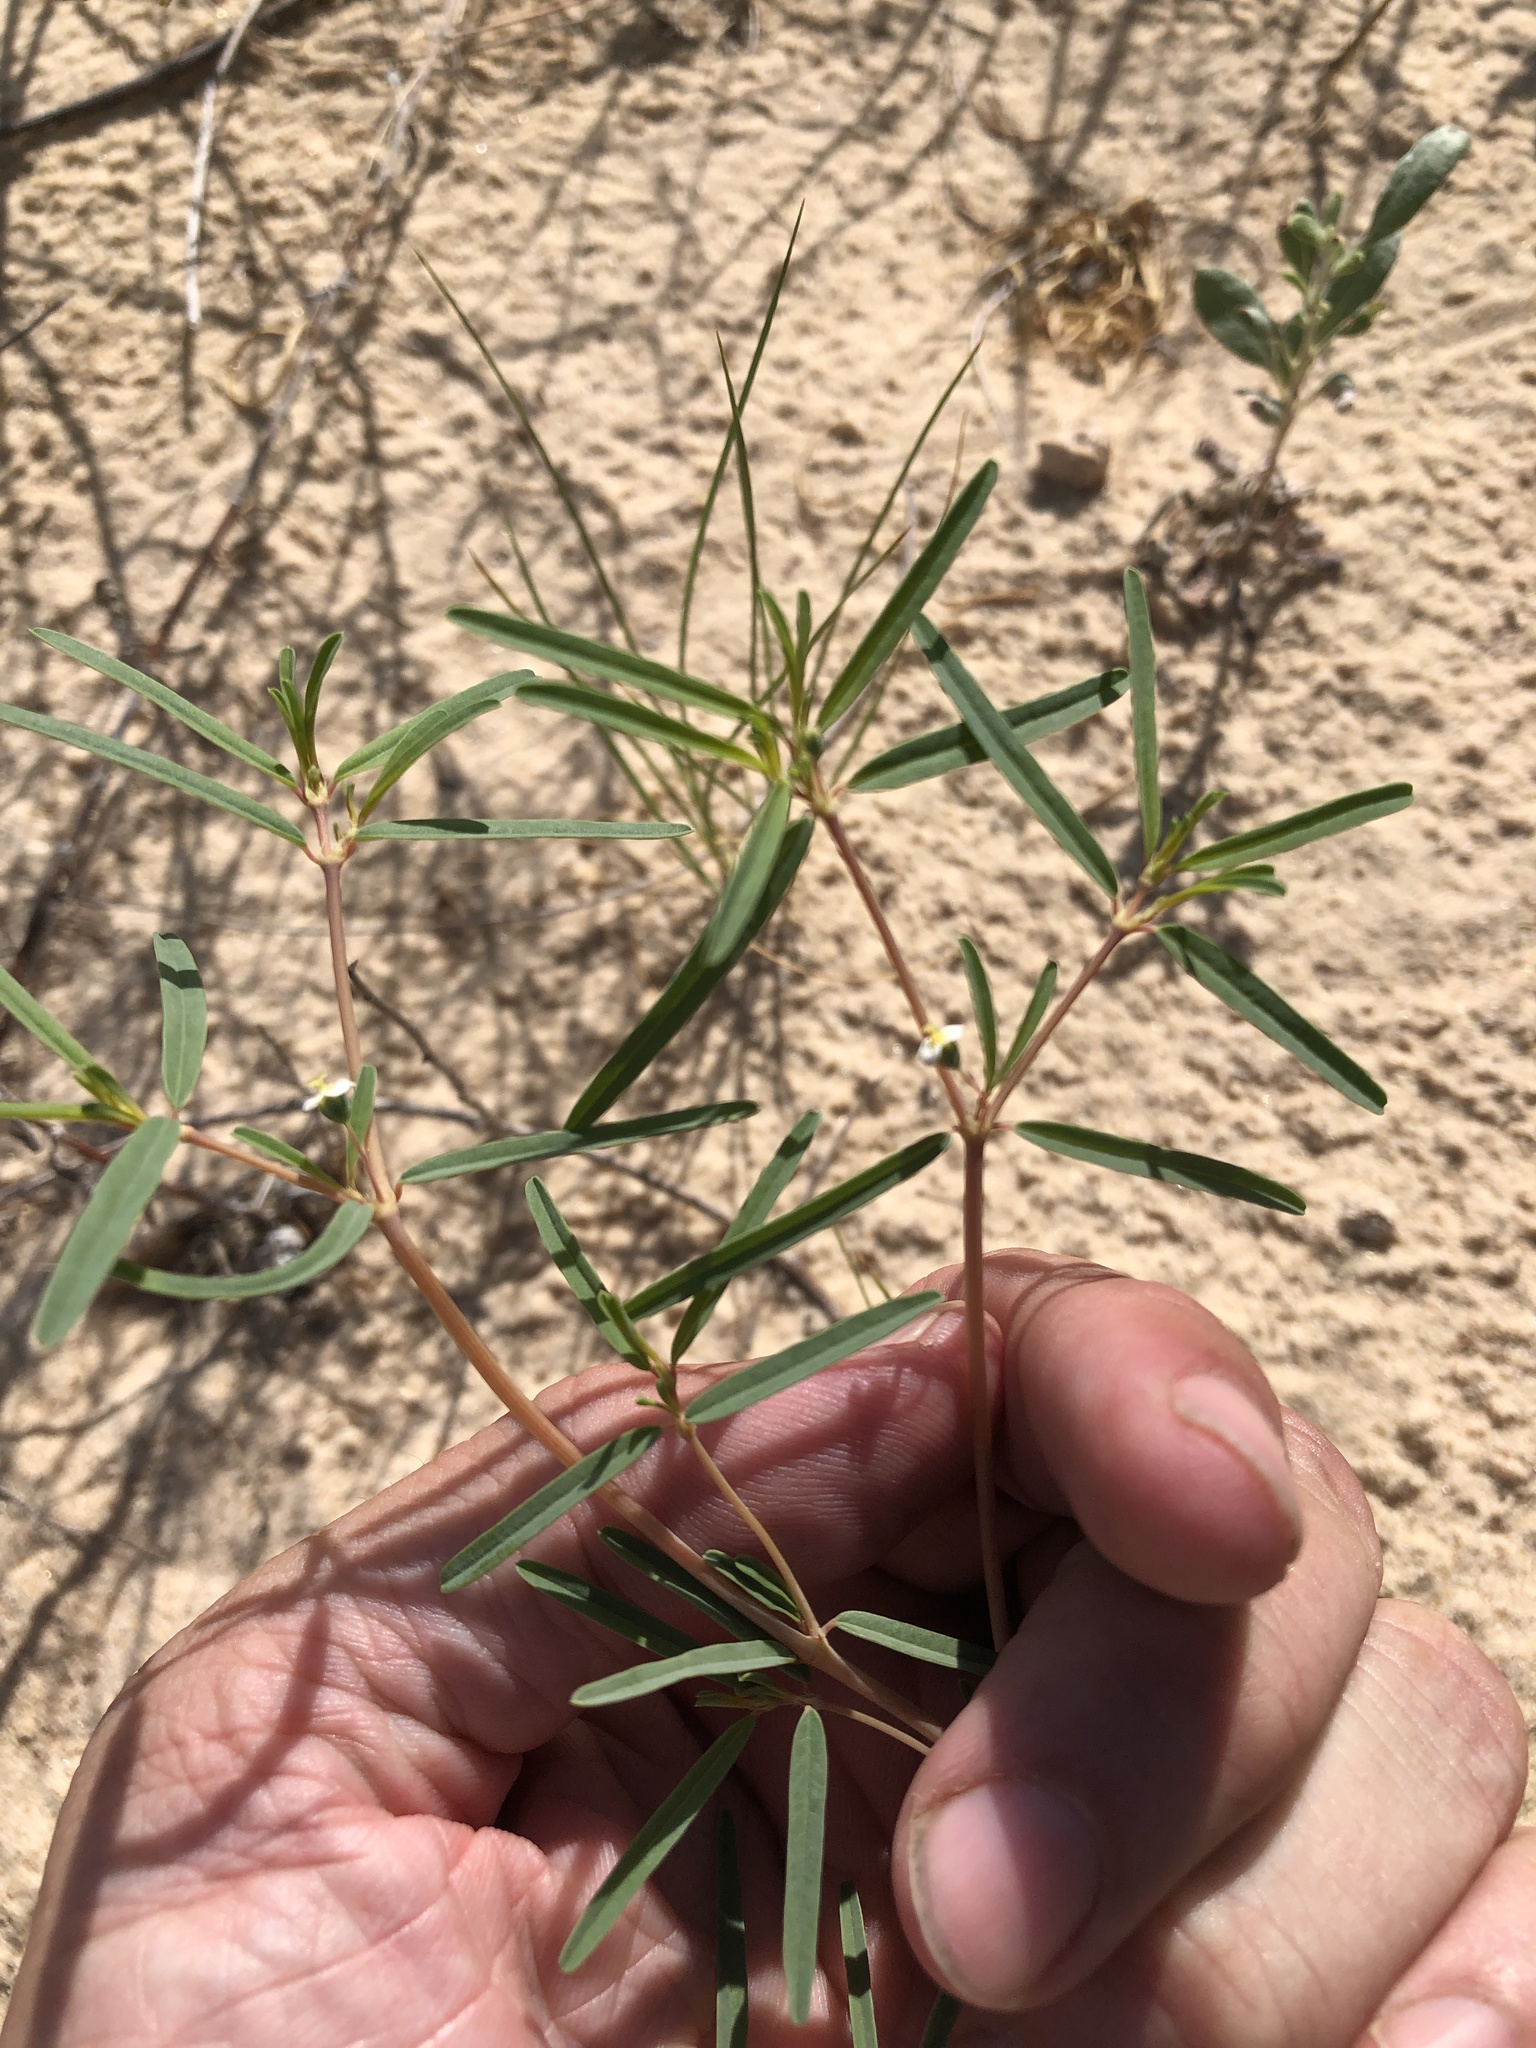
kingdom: Plantae
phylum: Tracheophyta
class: Magnoliopsida
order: Malpighiales
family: Euphorbiaceae
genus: Euphorbia
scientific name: Euphorbia missurica
